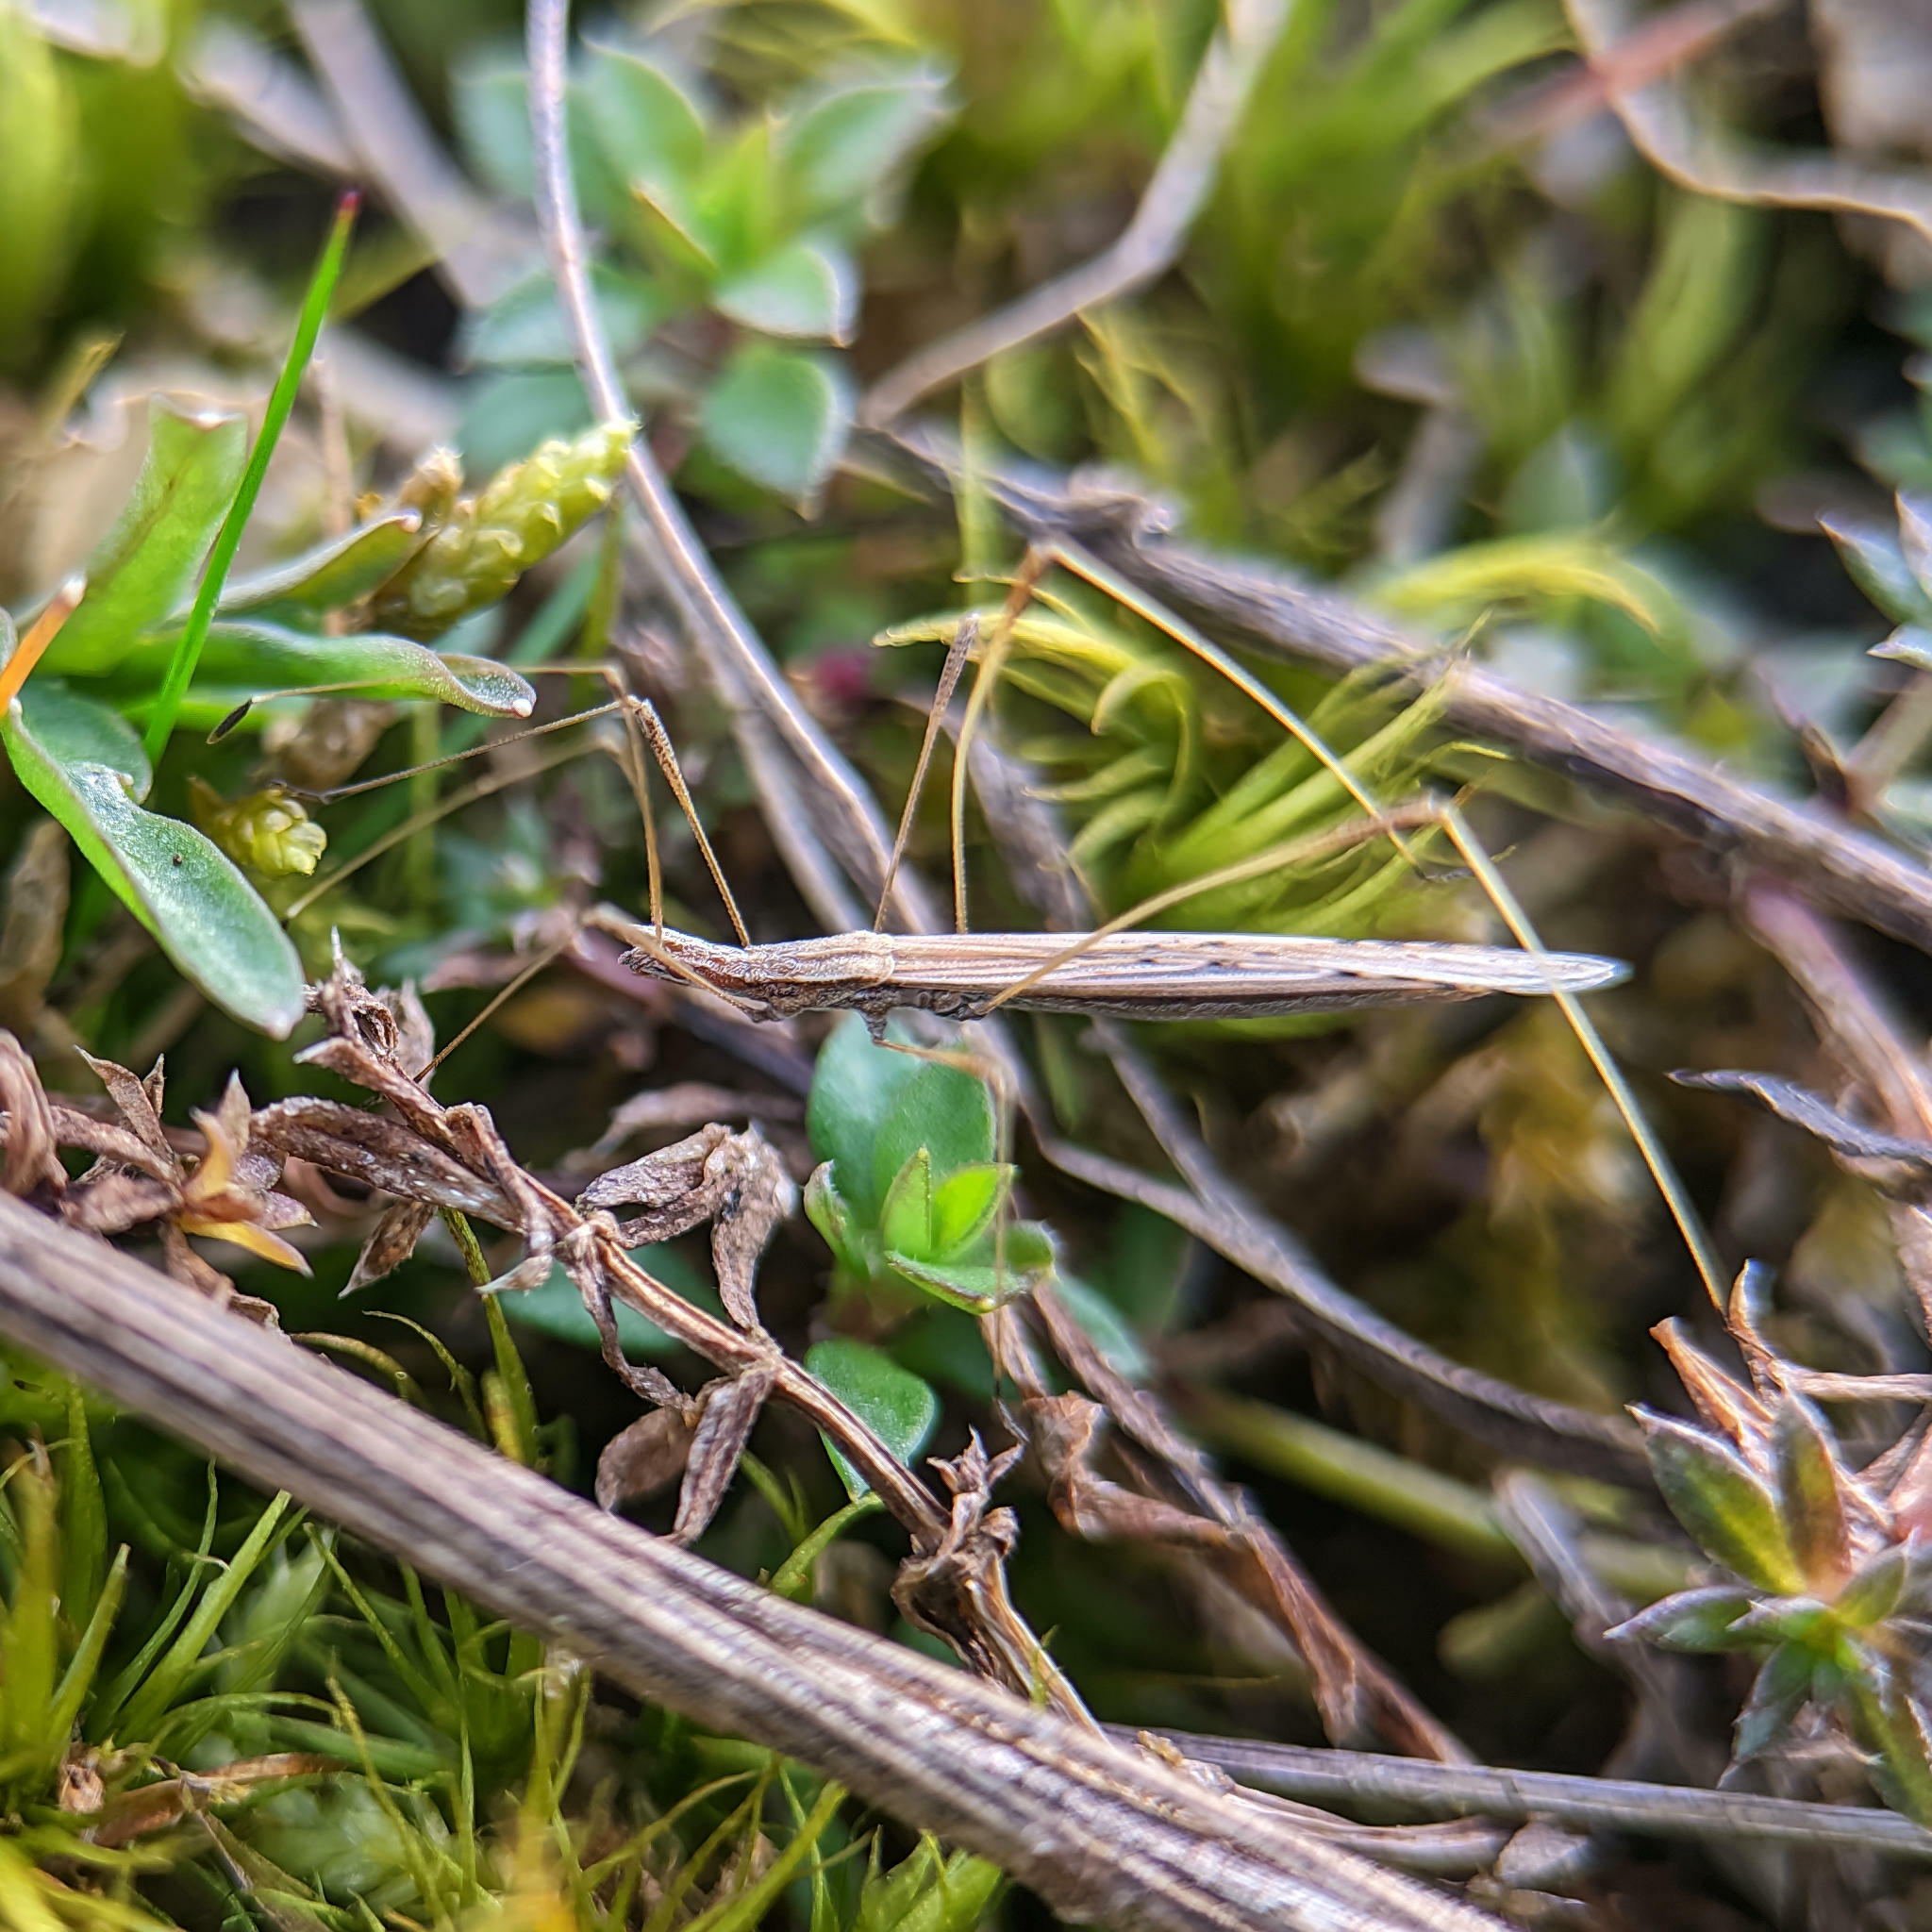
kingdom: Animalia
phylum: Arthropoda
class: Insecta
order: Hemiptera
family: Berytidae
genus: Neides
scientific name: Neides tipularius
